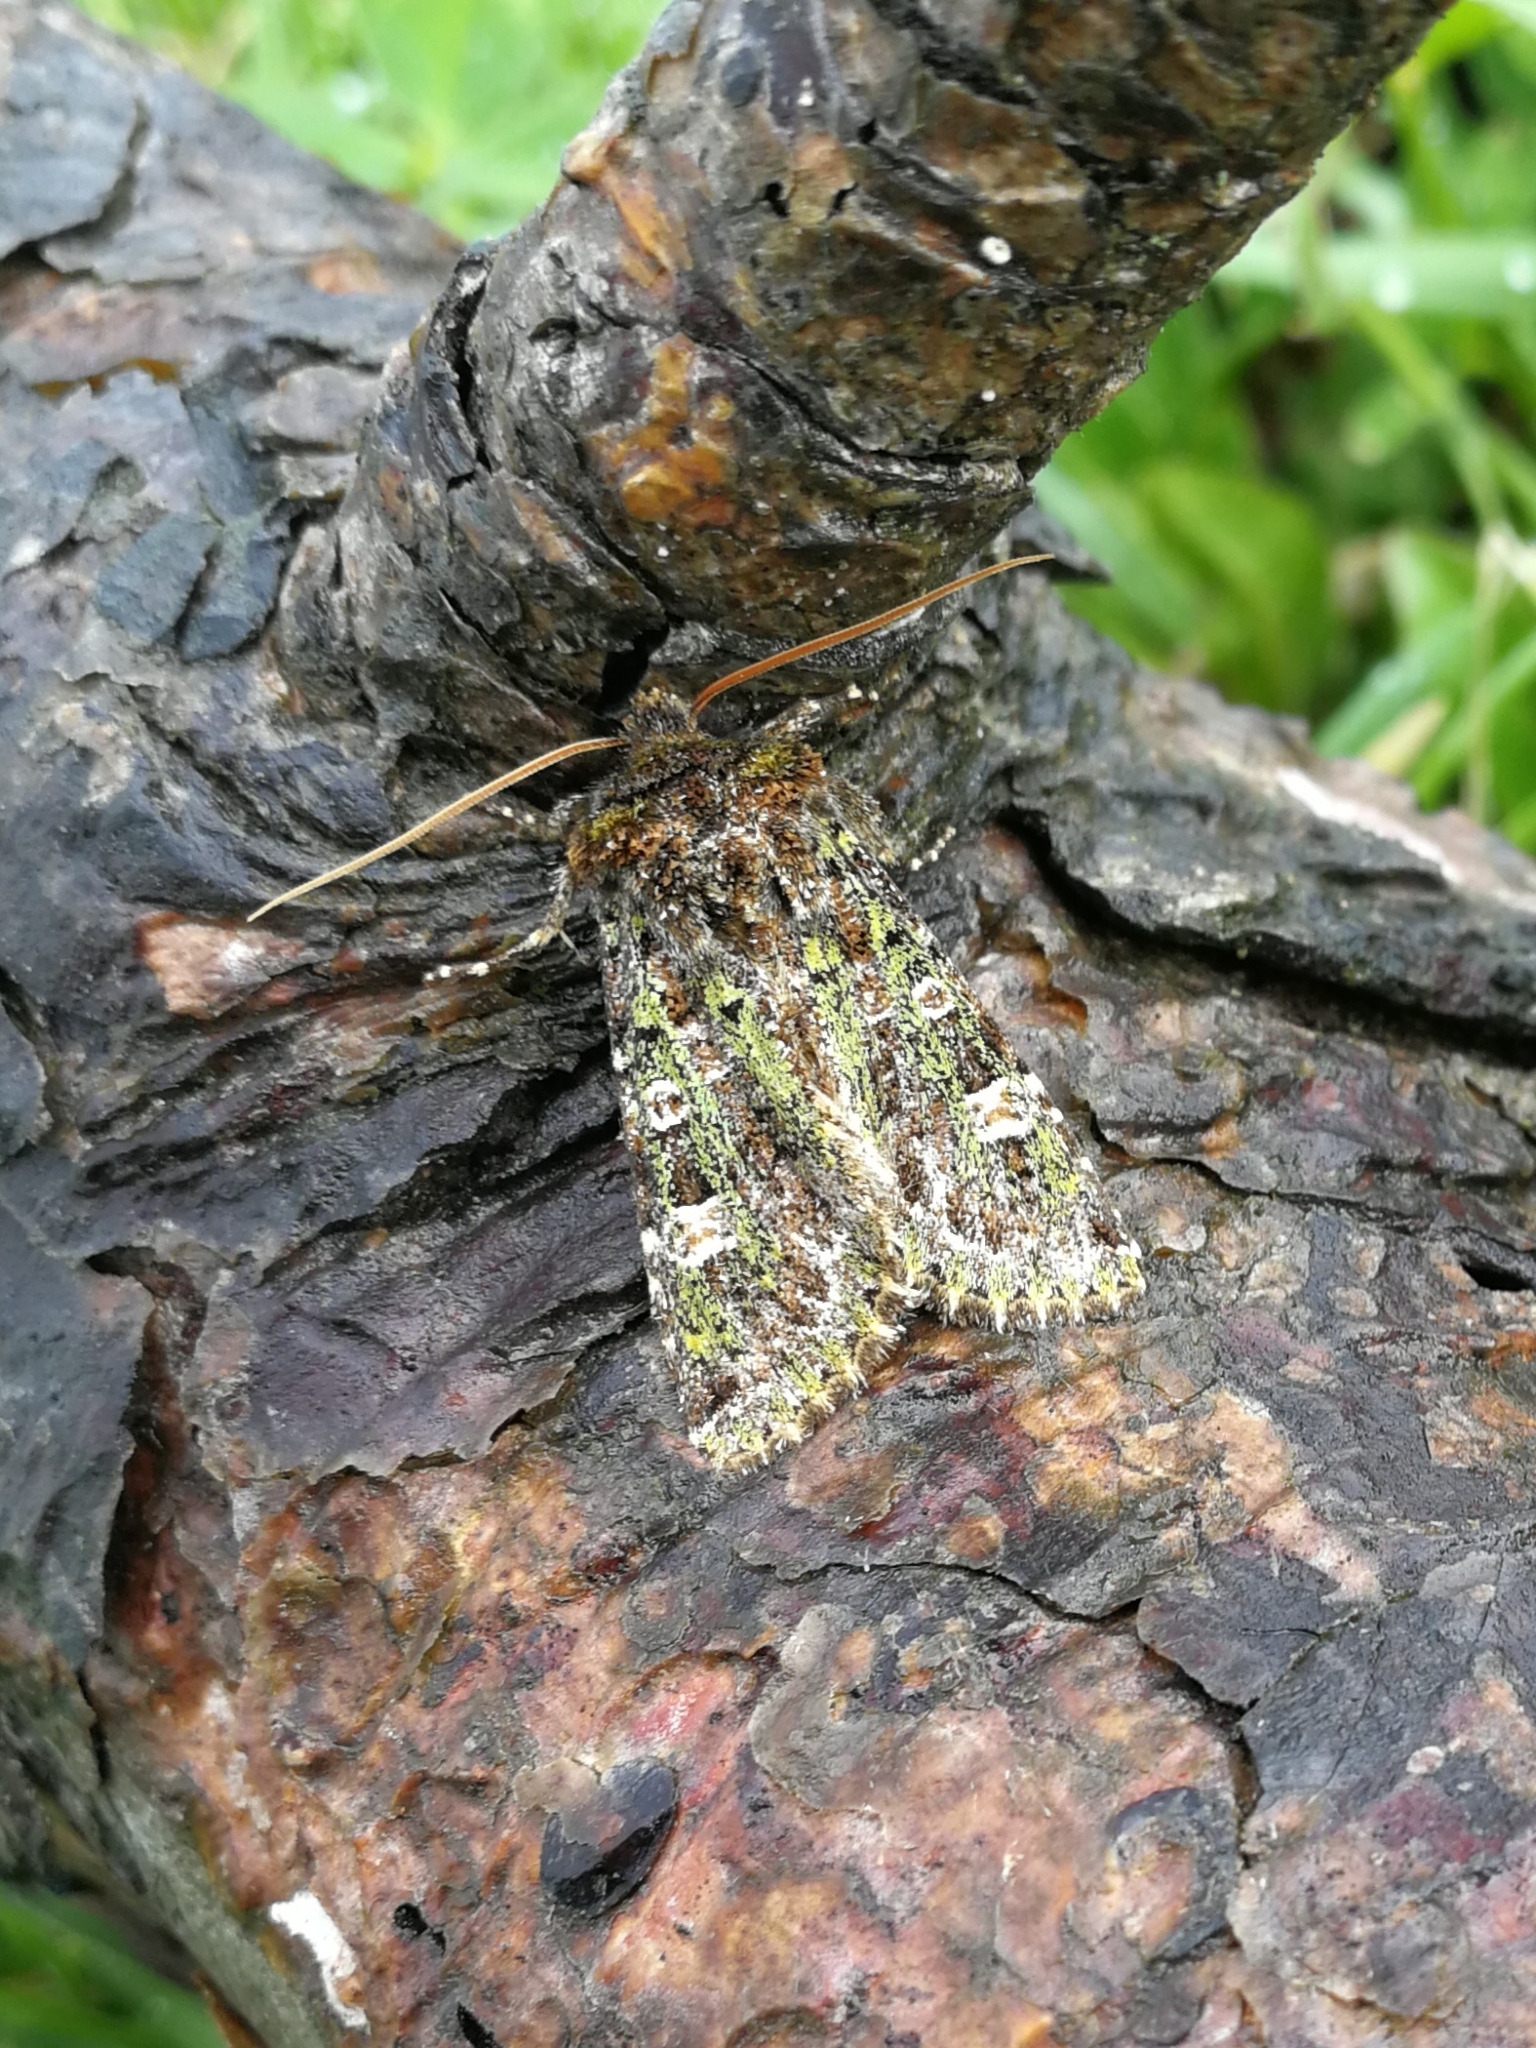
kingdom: Animalia
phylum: Arthropoda
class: Insecta
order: Lepidoptera
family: Noctuidae
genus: Valeria
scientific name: Valeria jaspidea
